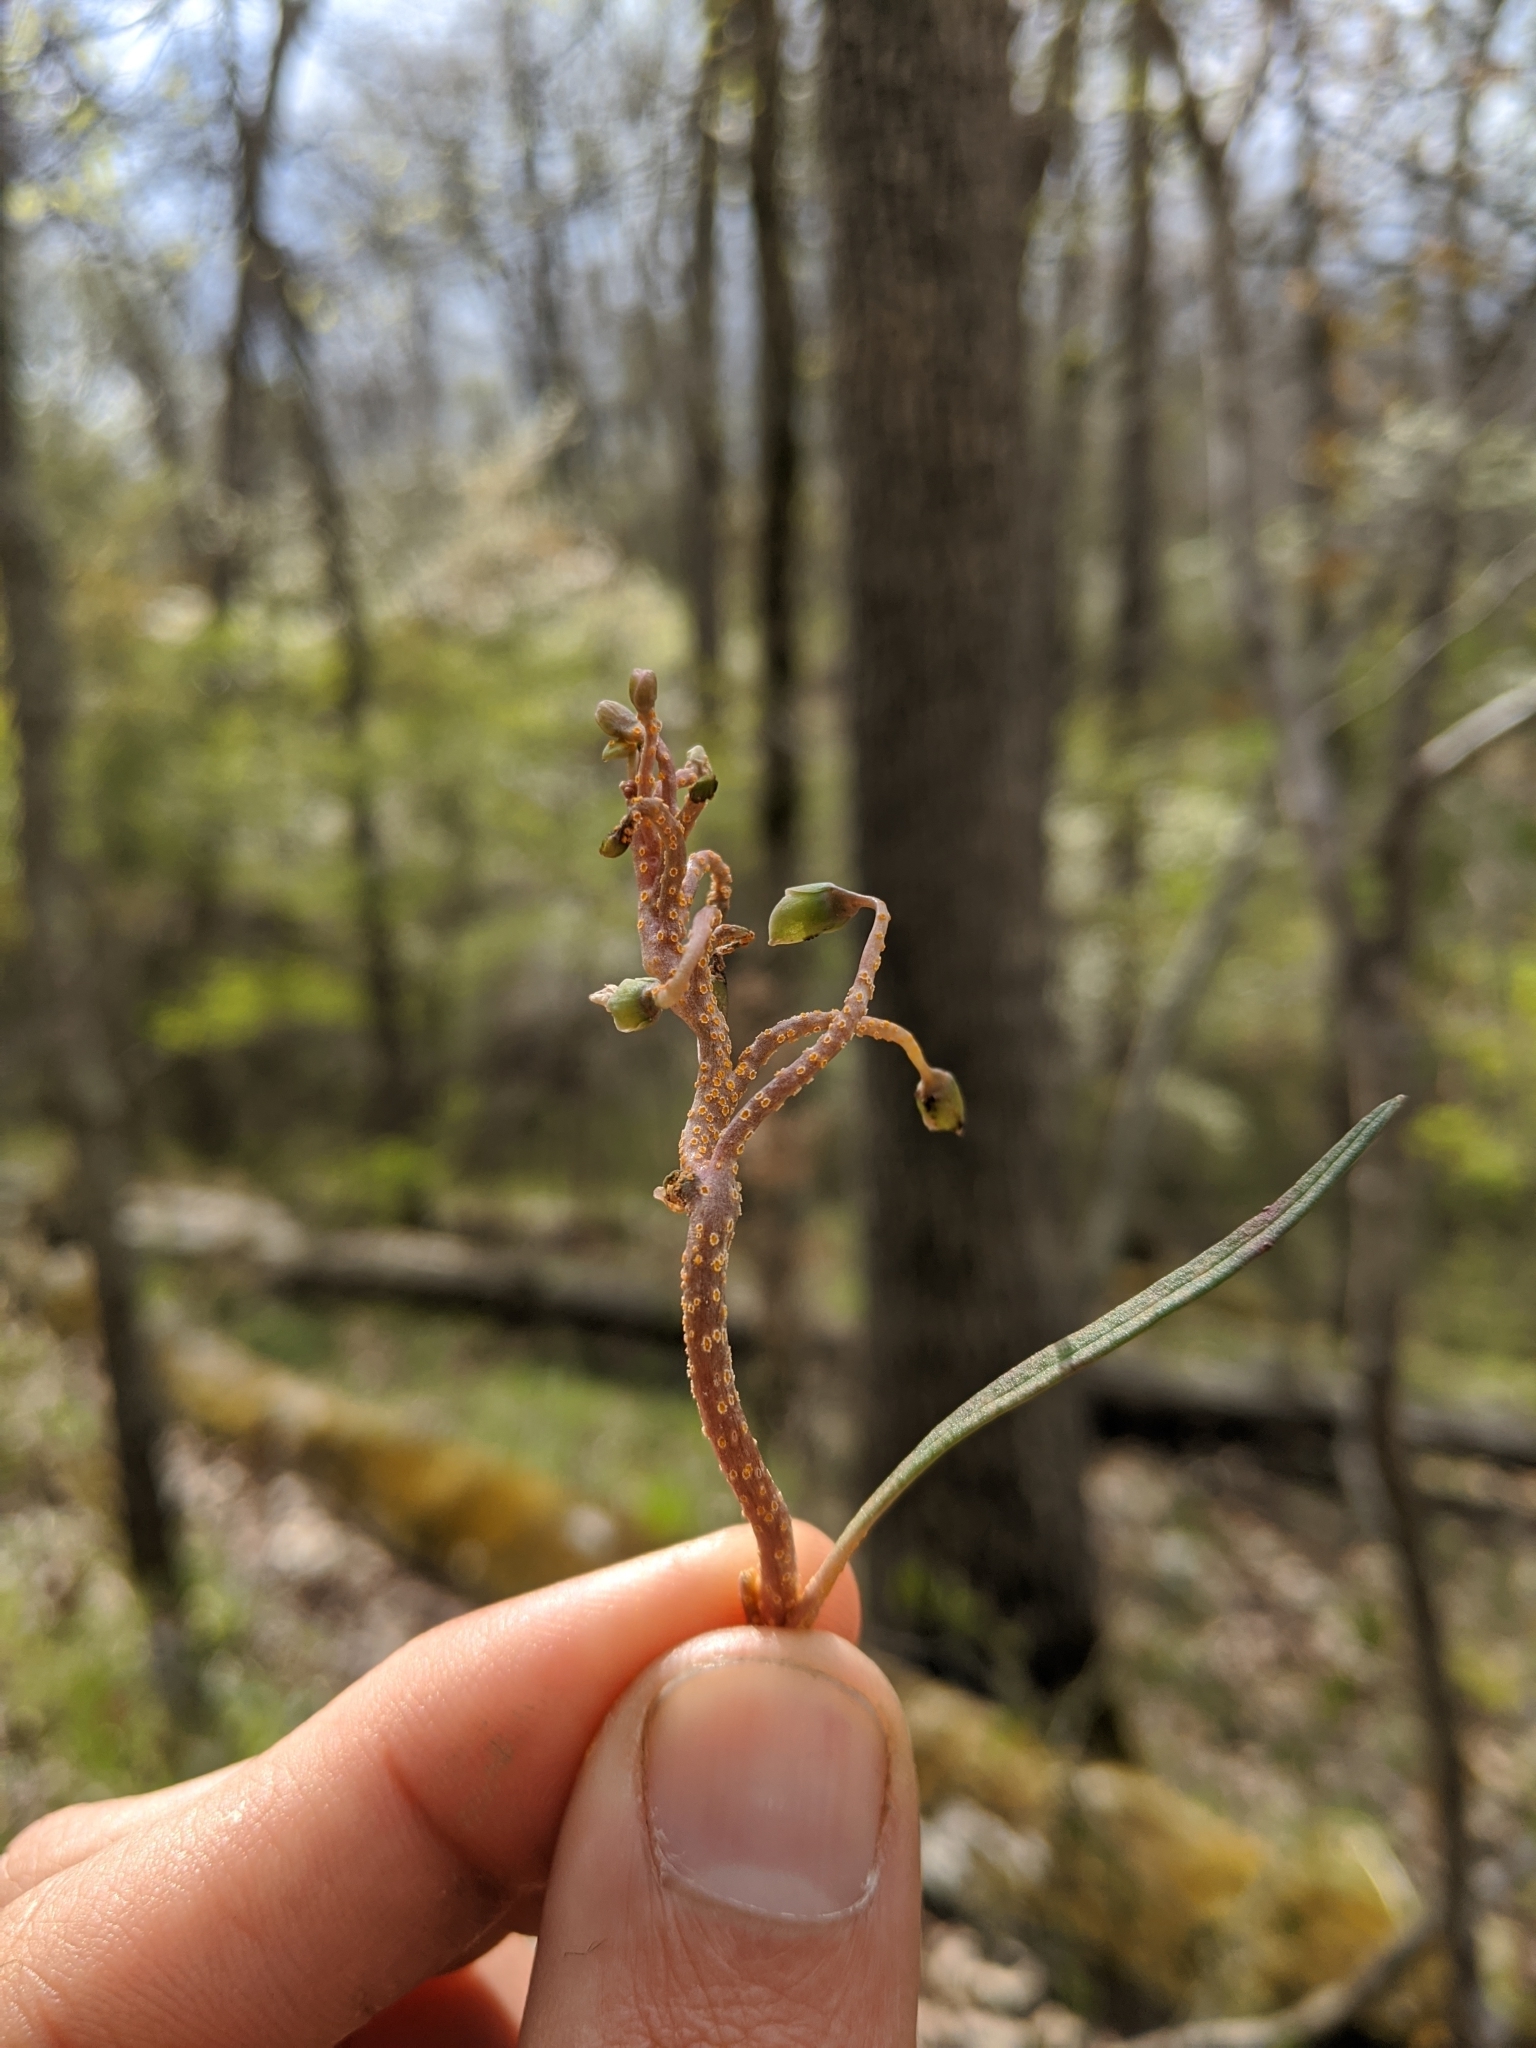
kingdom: Fungi
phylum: Basidiomycota
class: Pucciniomycetes
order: Pucciniales
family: Pucciniaceae
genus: Puccinia
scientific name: Puccinia mariae-wilsoniae
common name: Spring beauty rust
